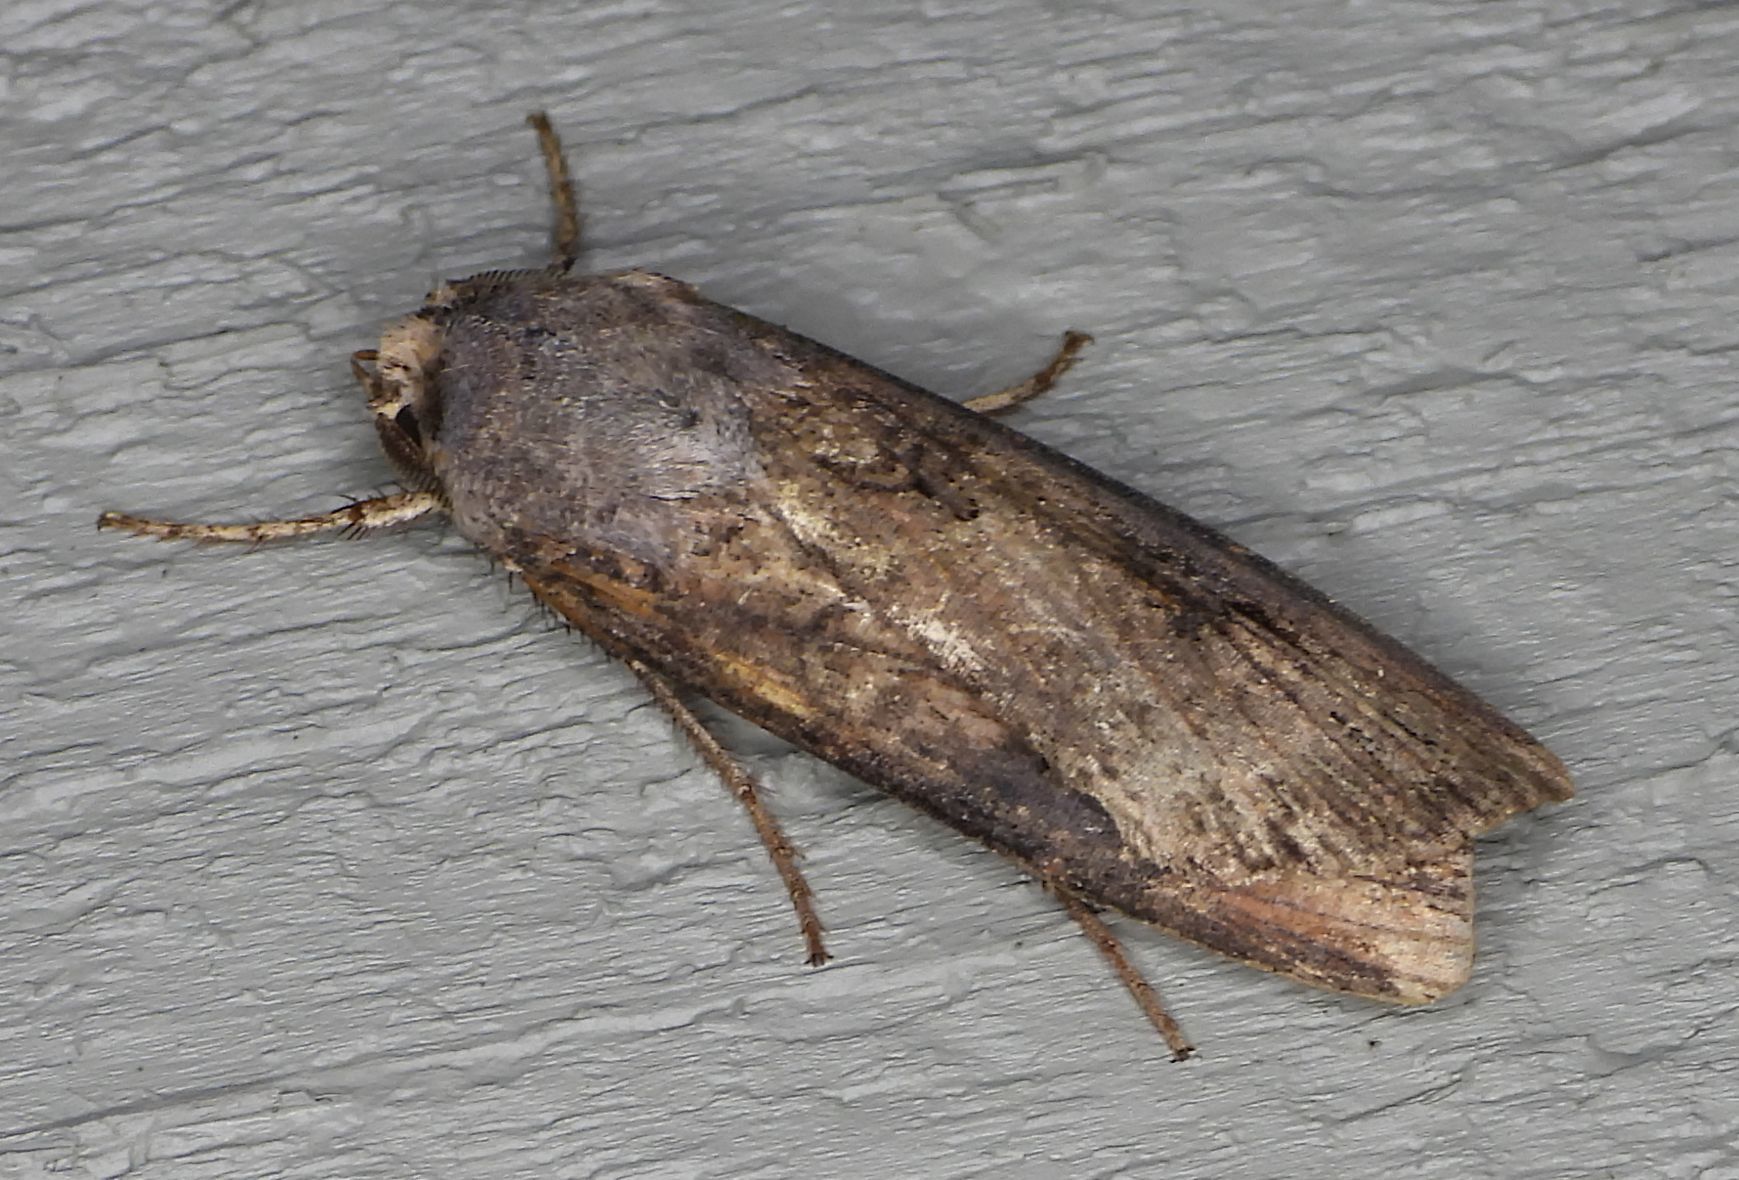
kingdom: Animalia
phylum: Arthropoda
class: Insecta
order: Lepidoptera
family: Noctuidae
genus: Agrotis
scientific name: Agrotis ipsilon
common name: Dark sword-grass
